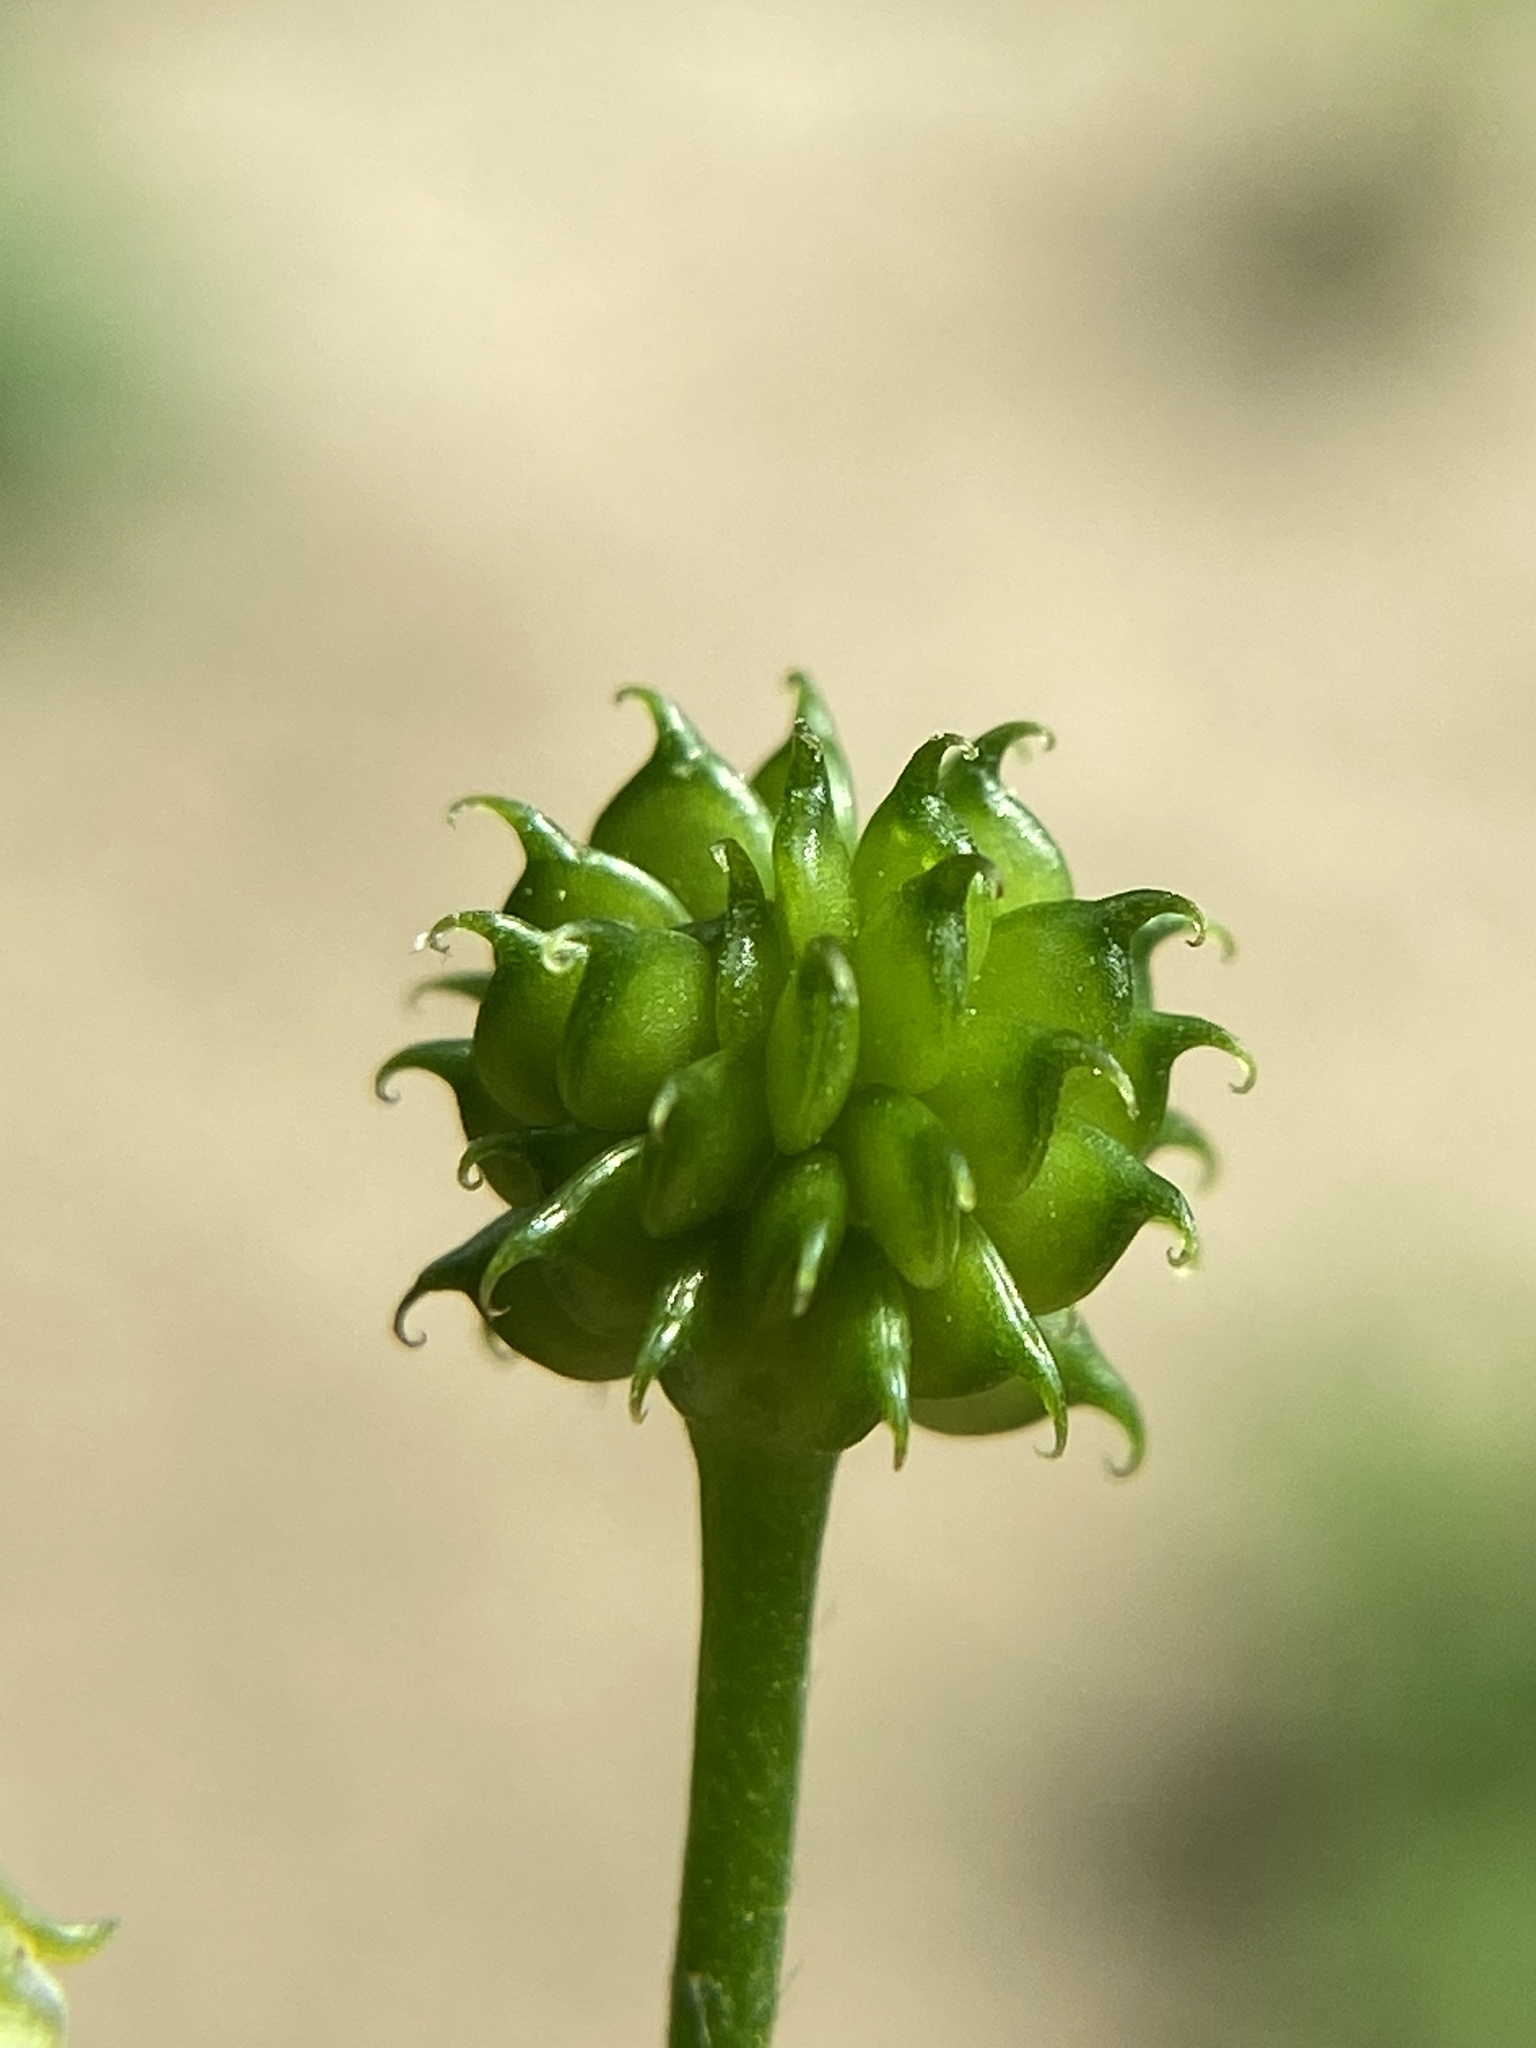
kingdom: Plantae
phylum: Tracheophyta
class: Magnoliopsida
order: Ranunculales
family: Ranunculaceae
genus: Ranunculus
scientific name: Ranunculus recurvatus
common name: Blisterwort
